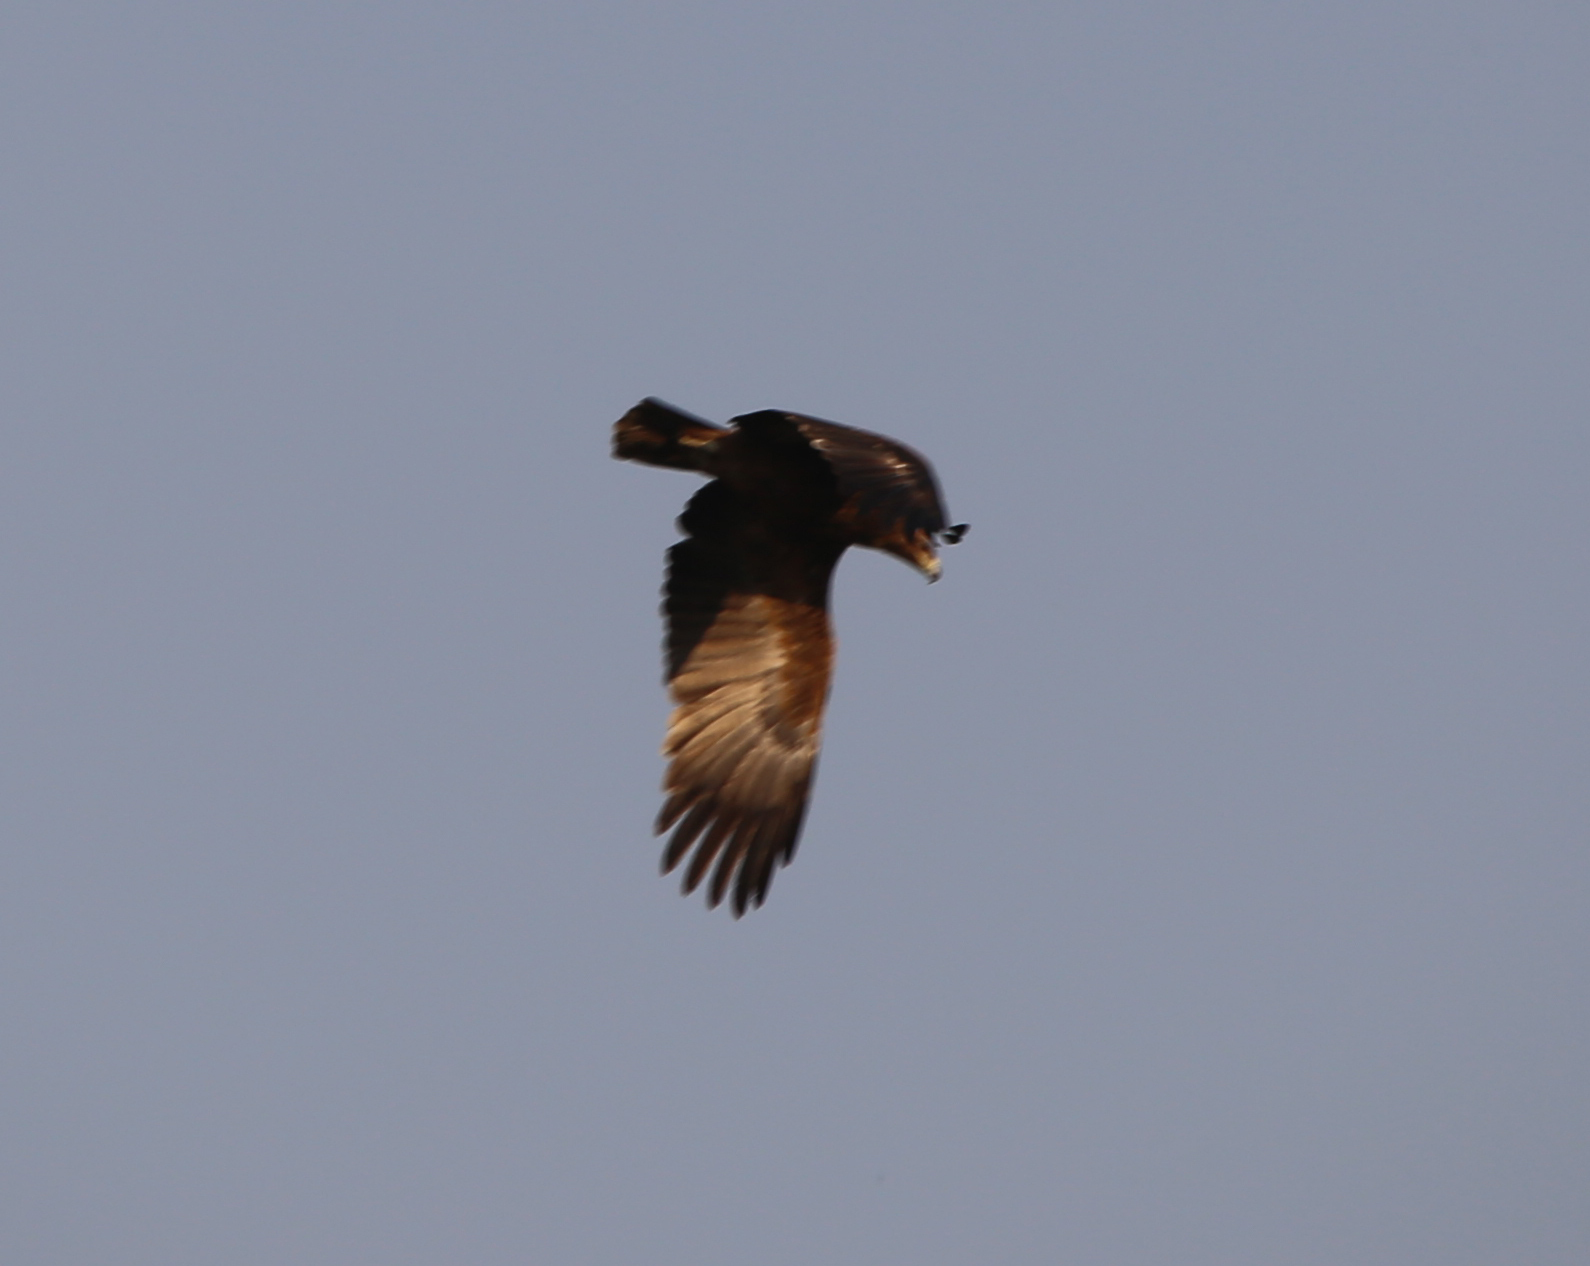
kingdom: Animalia
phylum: Chordata
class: Aves
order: Accipitriformes
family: Accipitridae
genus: Aquila
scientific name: Aquila rapax
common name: Tawny eagle
